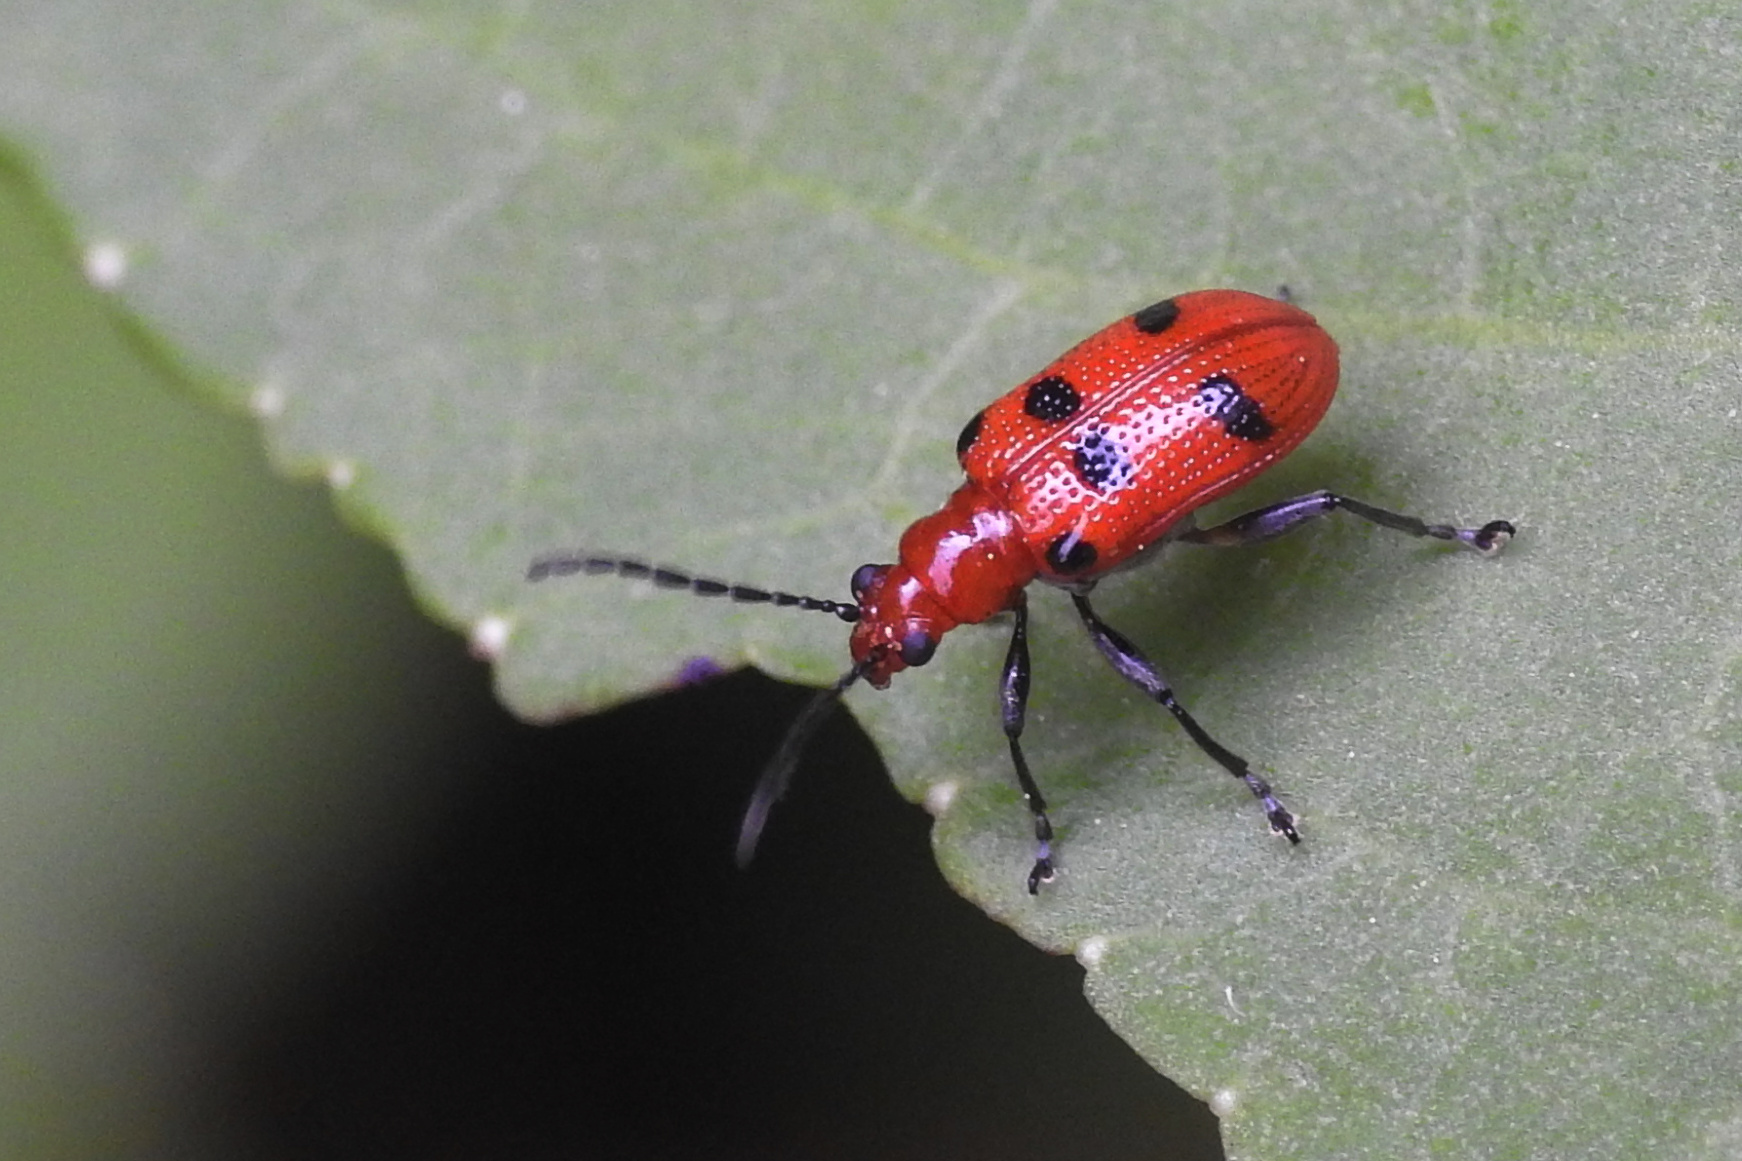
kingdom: Animalia
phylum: Arthropoda
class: Insecta
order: Coleoptera
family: Chrysomelidae
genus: Neolema
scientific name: Neolema sexpunctata
